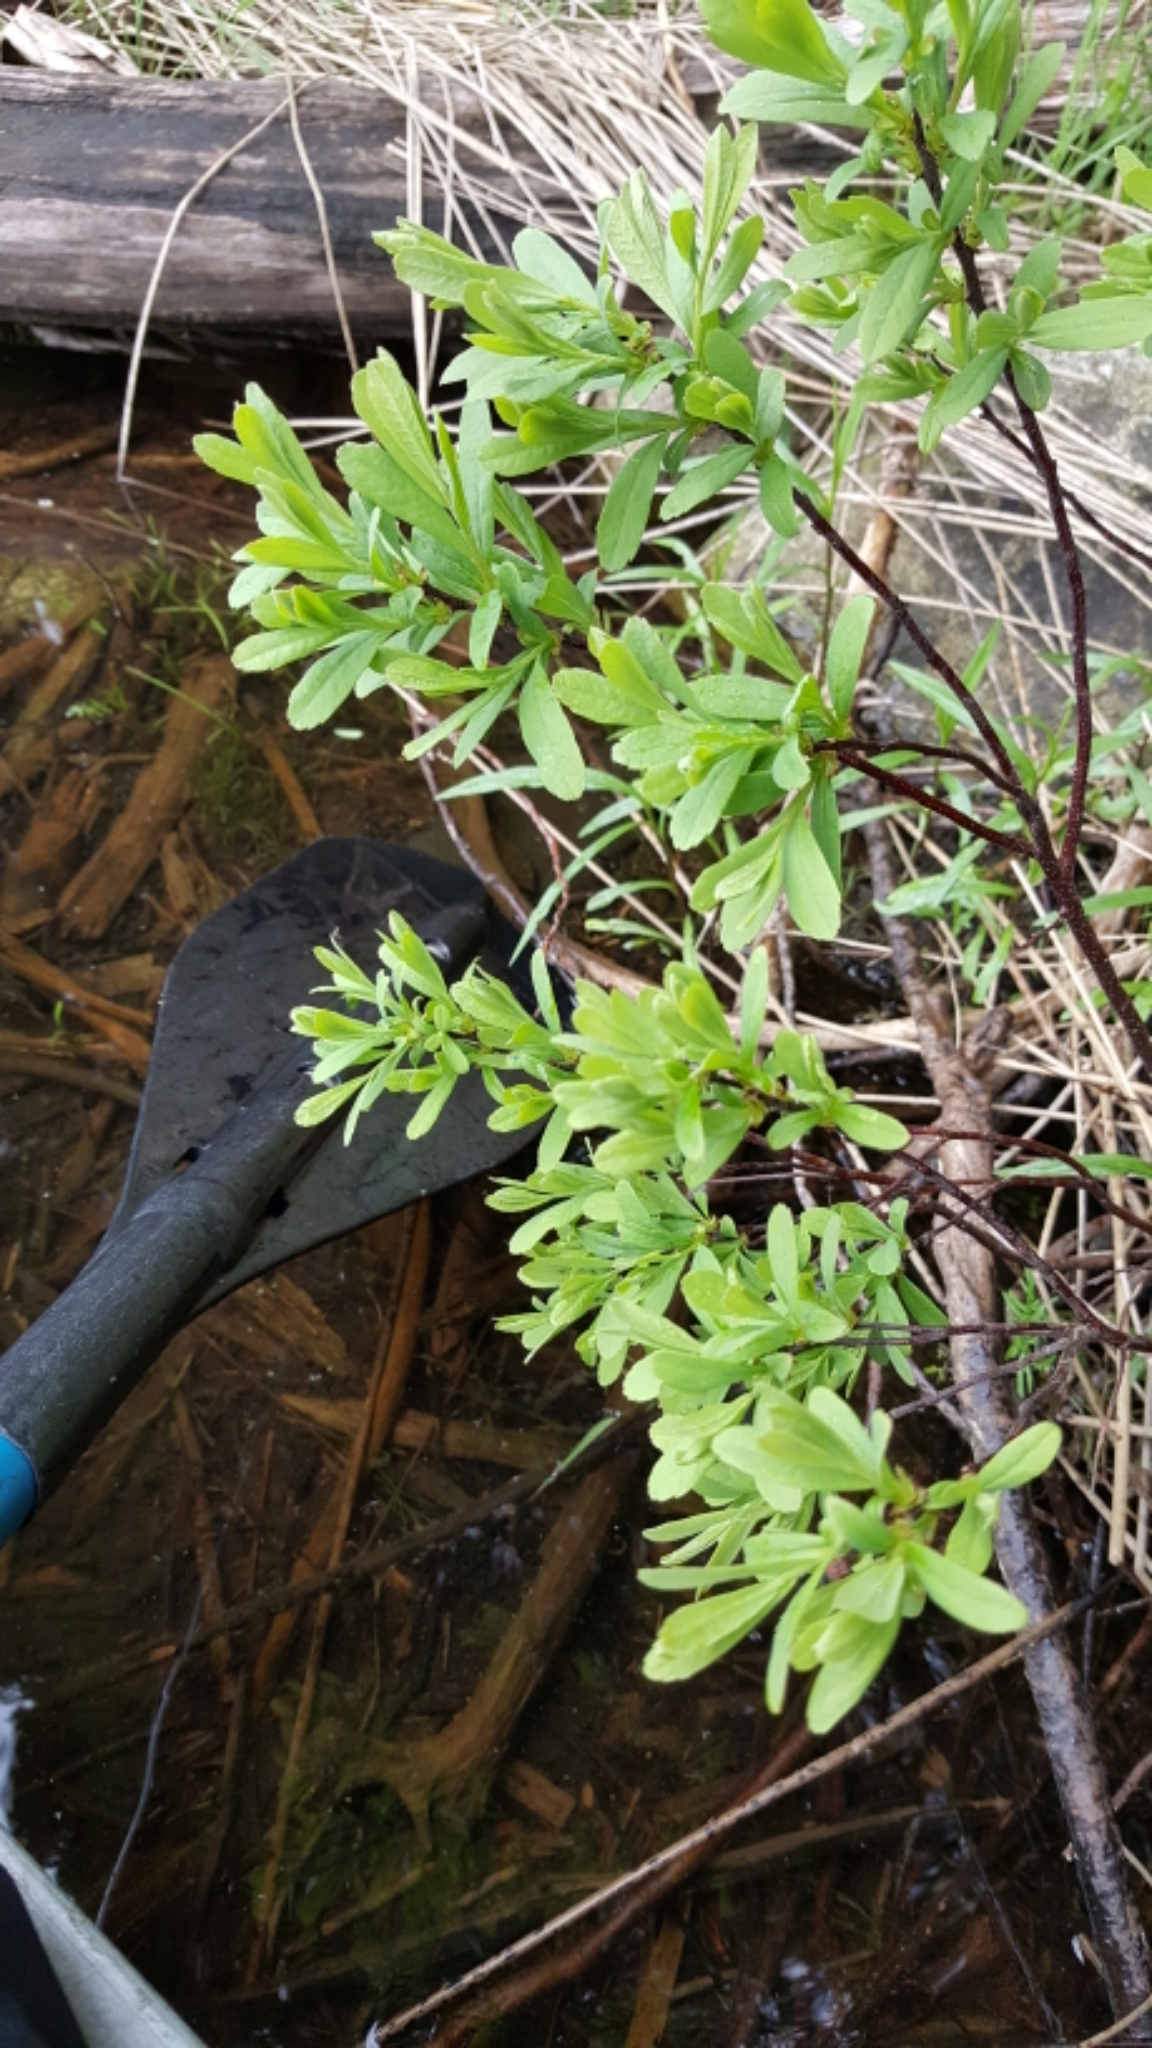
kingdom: Plantae
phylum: Tracheophyta
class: Magnoliopsida
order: Fagales
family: Myricaceae
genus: Myrica
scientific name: Myrica gale
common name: Sweet gale
